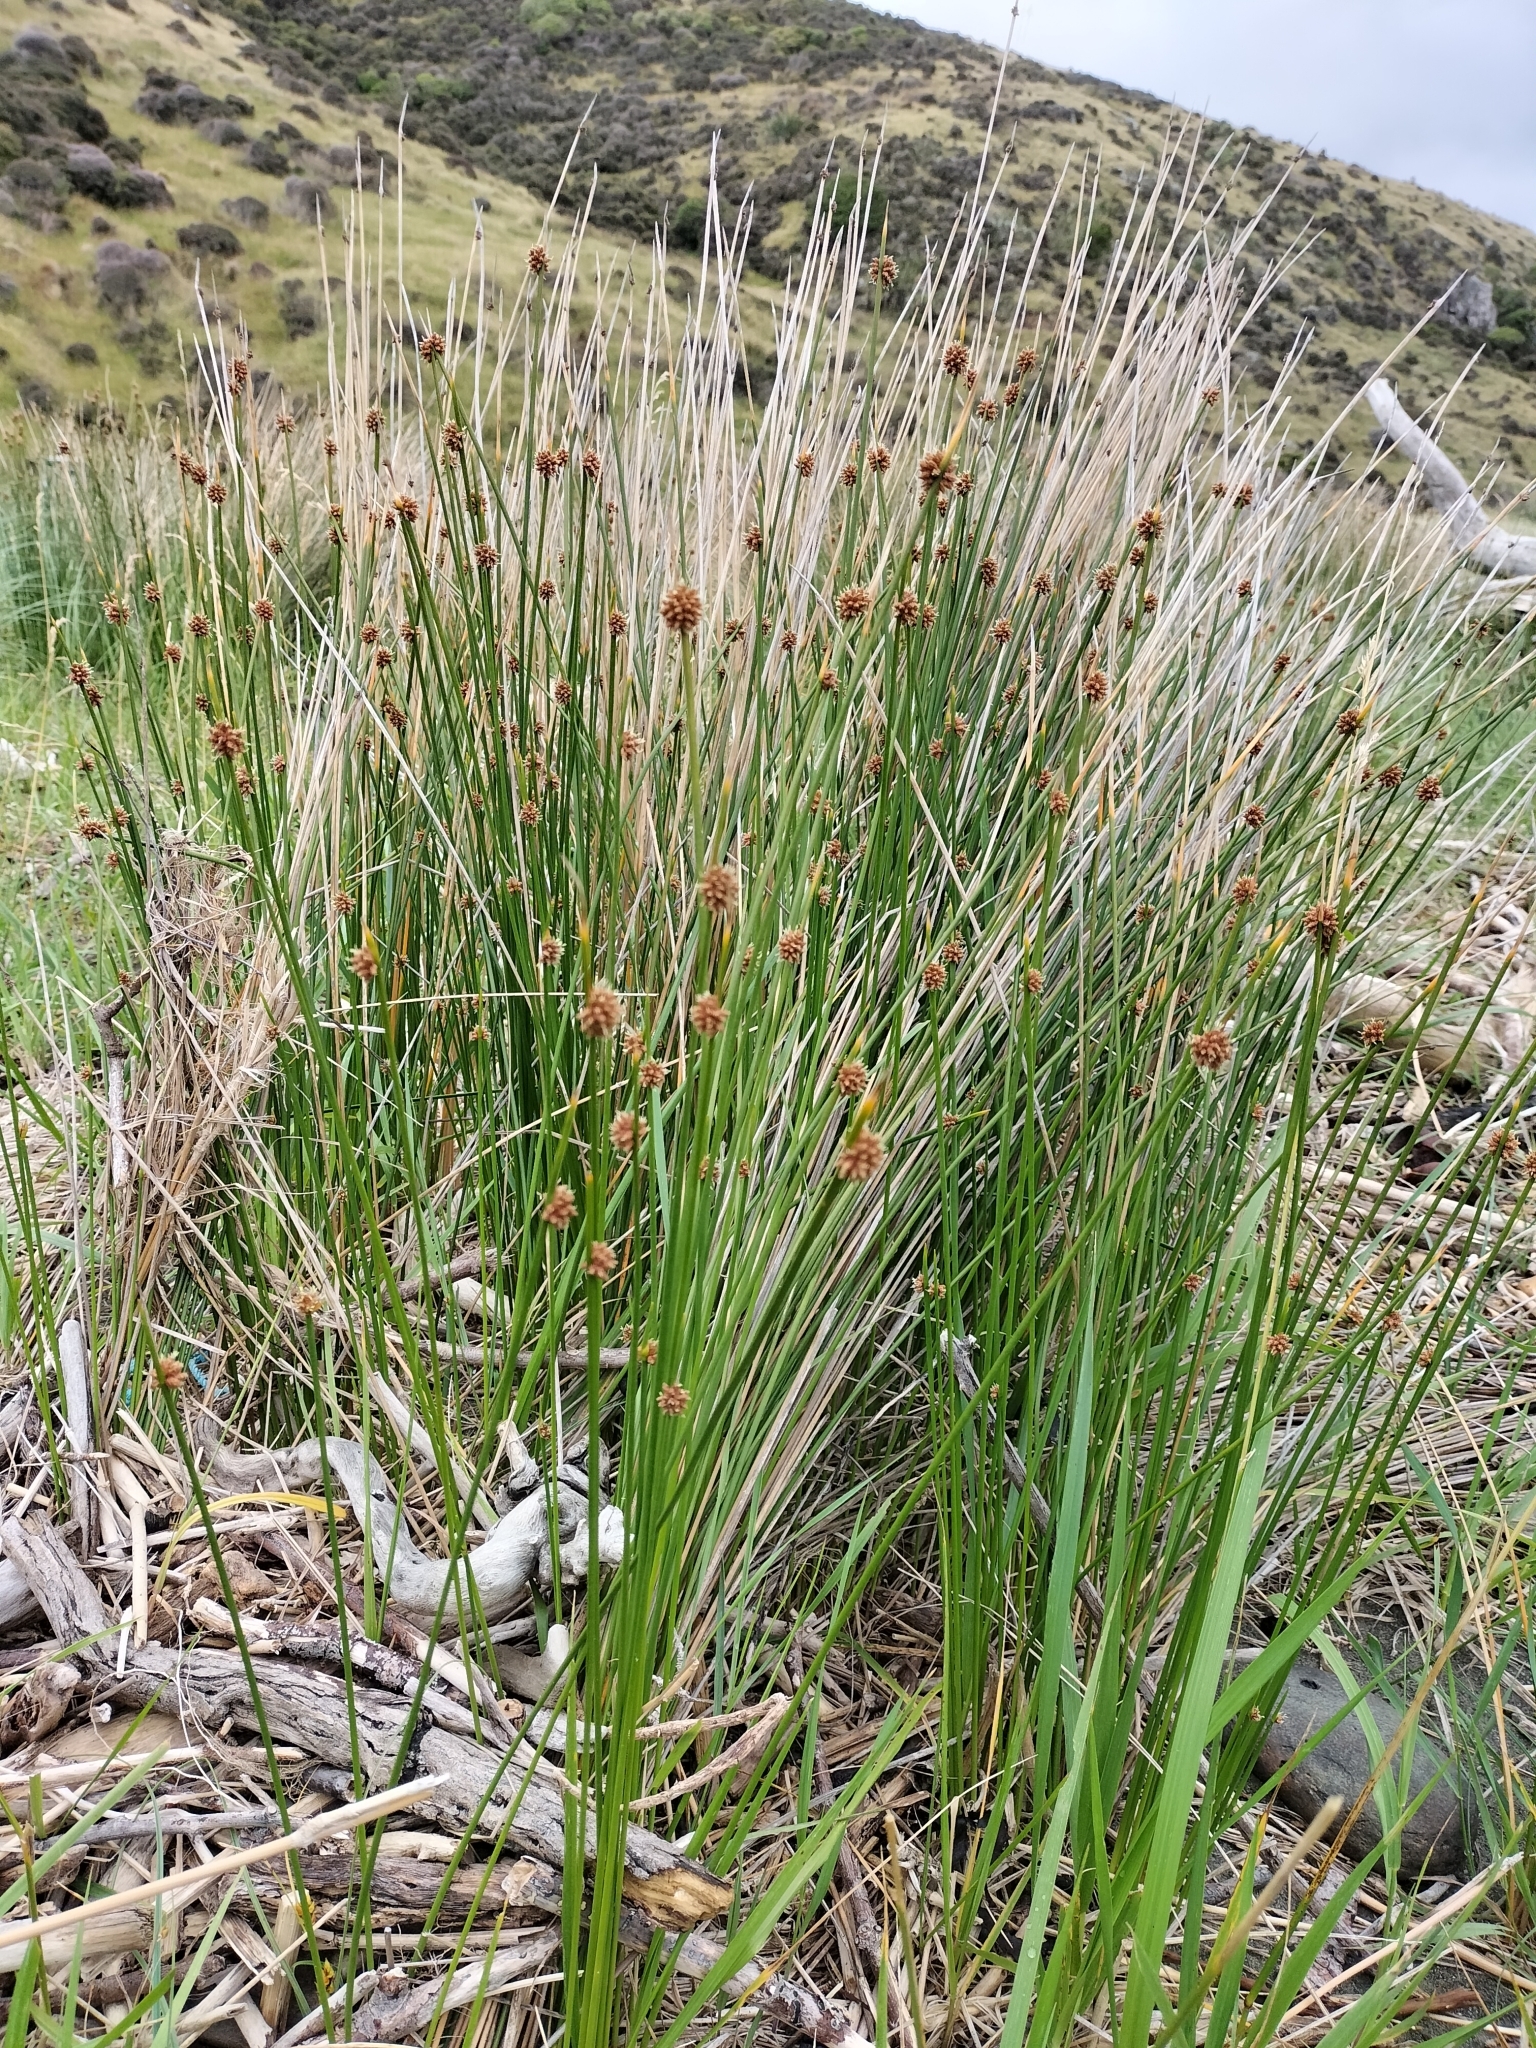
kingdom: Plantae
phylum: Tracheophyta
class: Liliopsida
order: Poales
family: Cyperaceae
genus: Ficinia
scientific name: Ficinia nodosa
